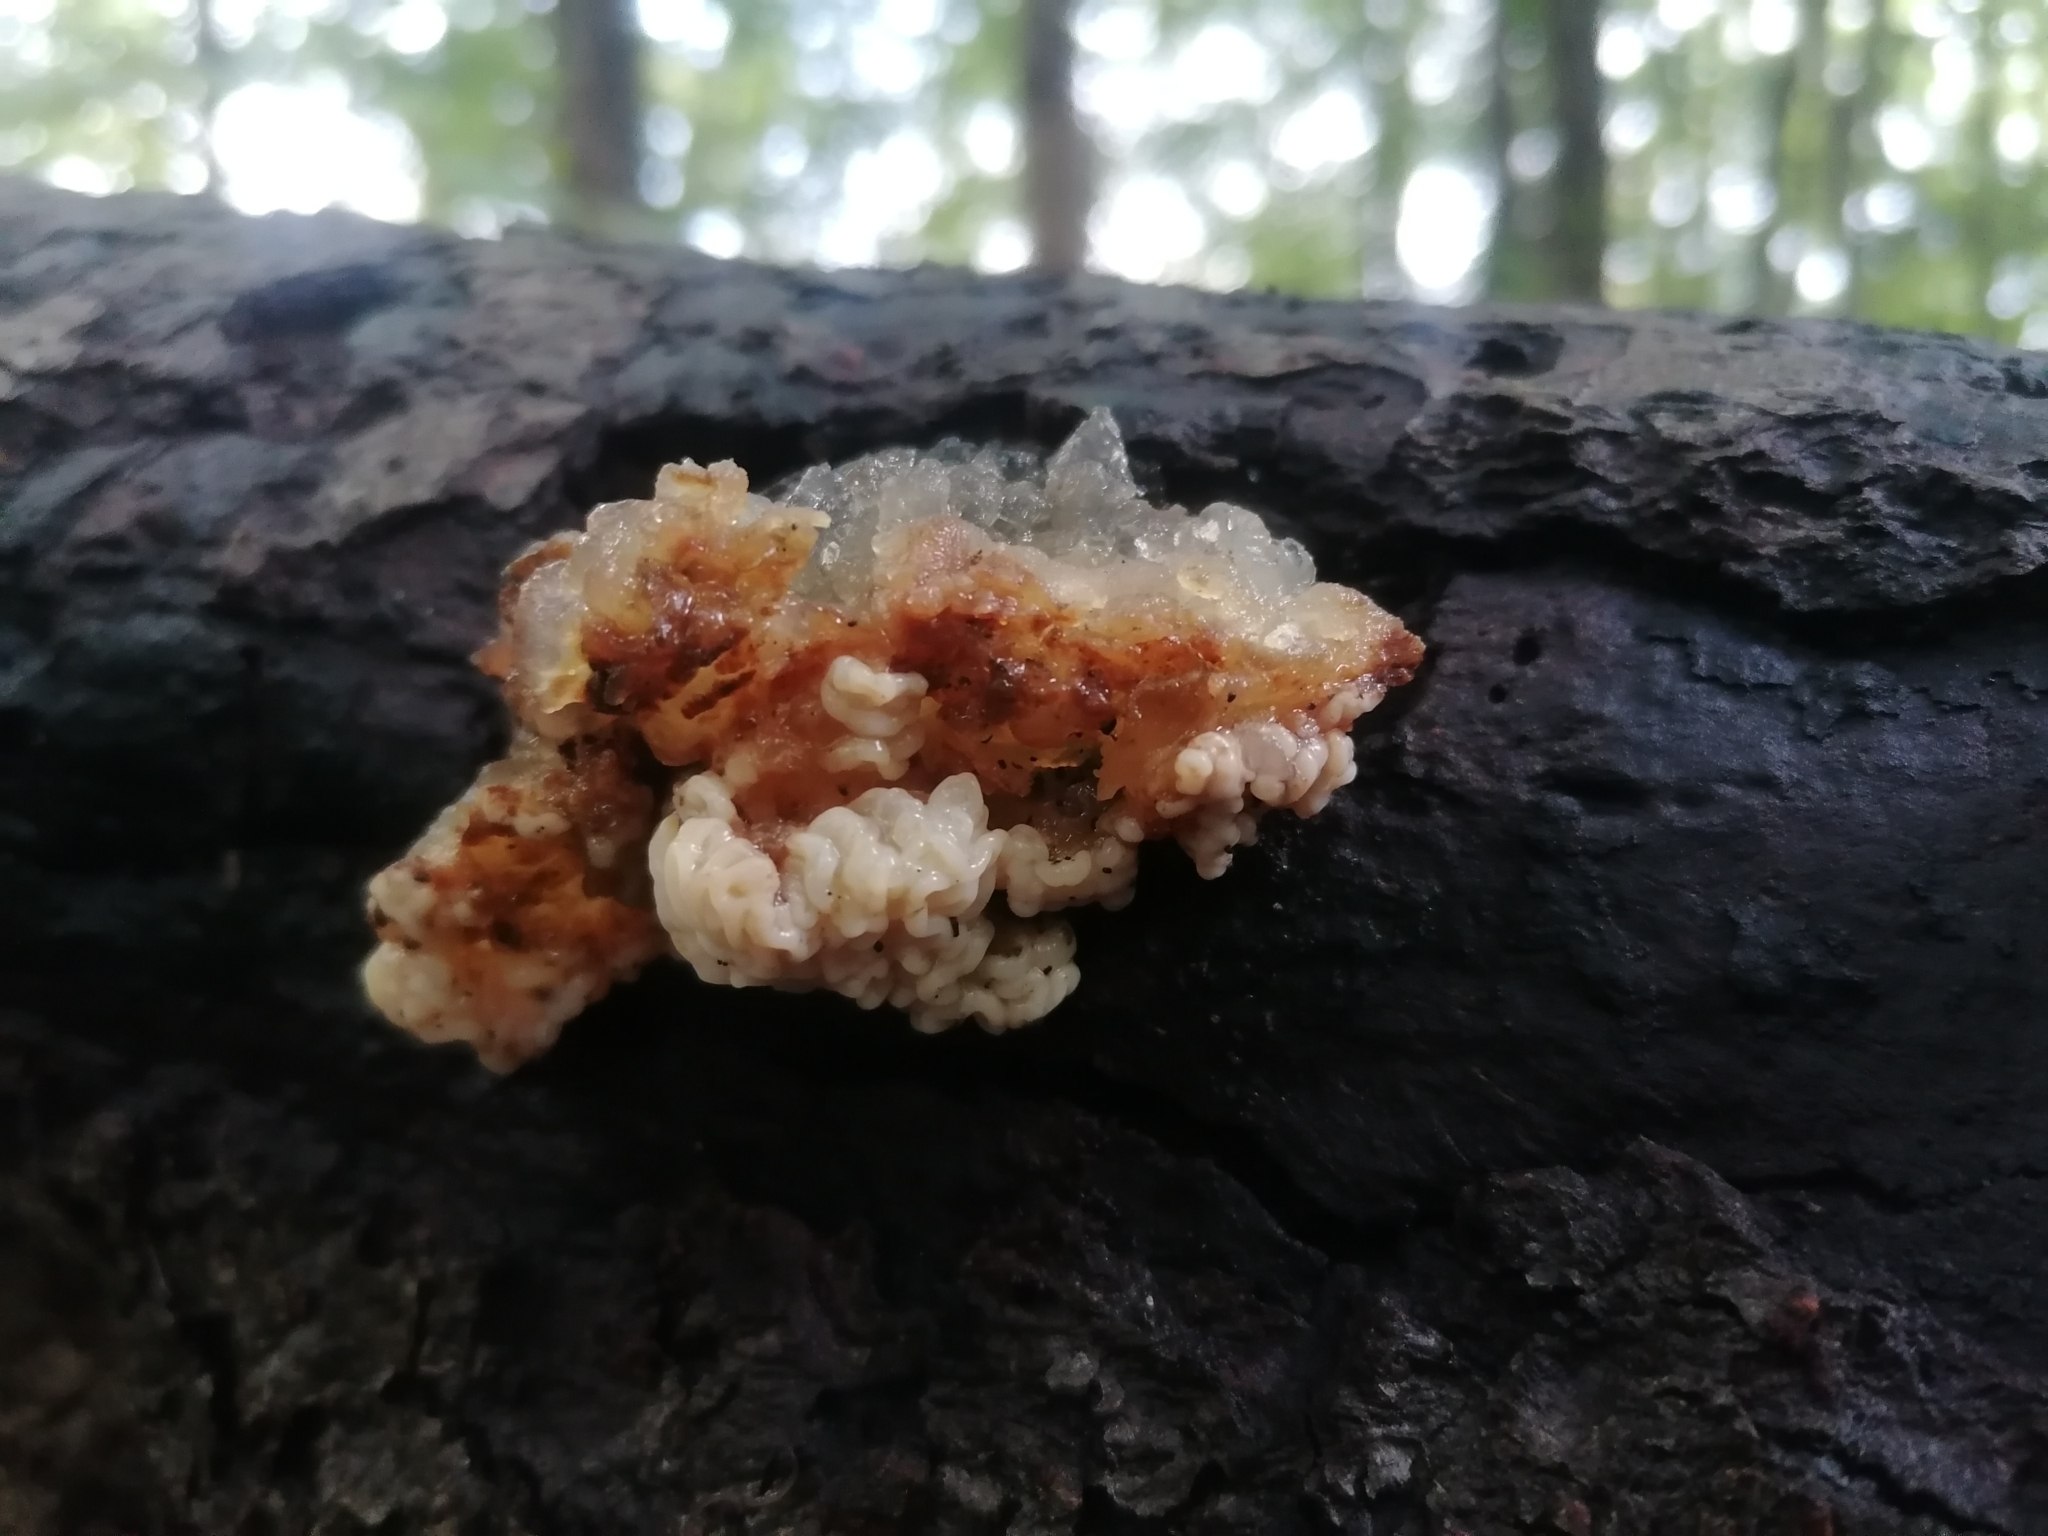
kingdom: Fungi
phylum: Basidiomycota
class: Agaricomycetes
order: Auriculariales
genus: Ductifera
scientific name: Ductifera pululahuana
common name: White jelly fungus
